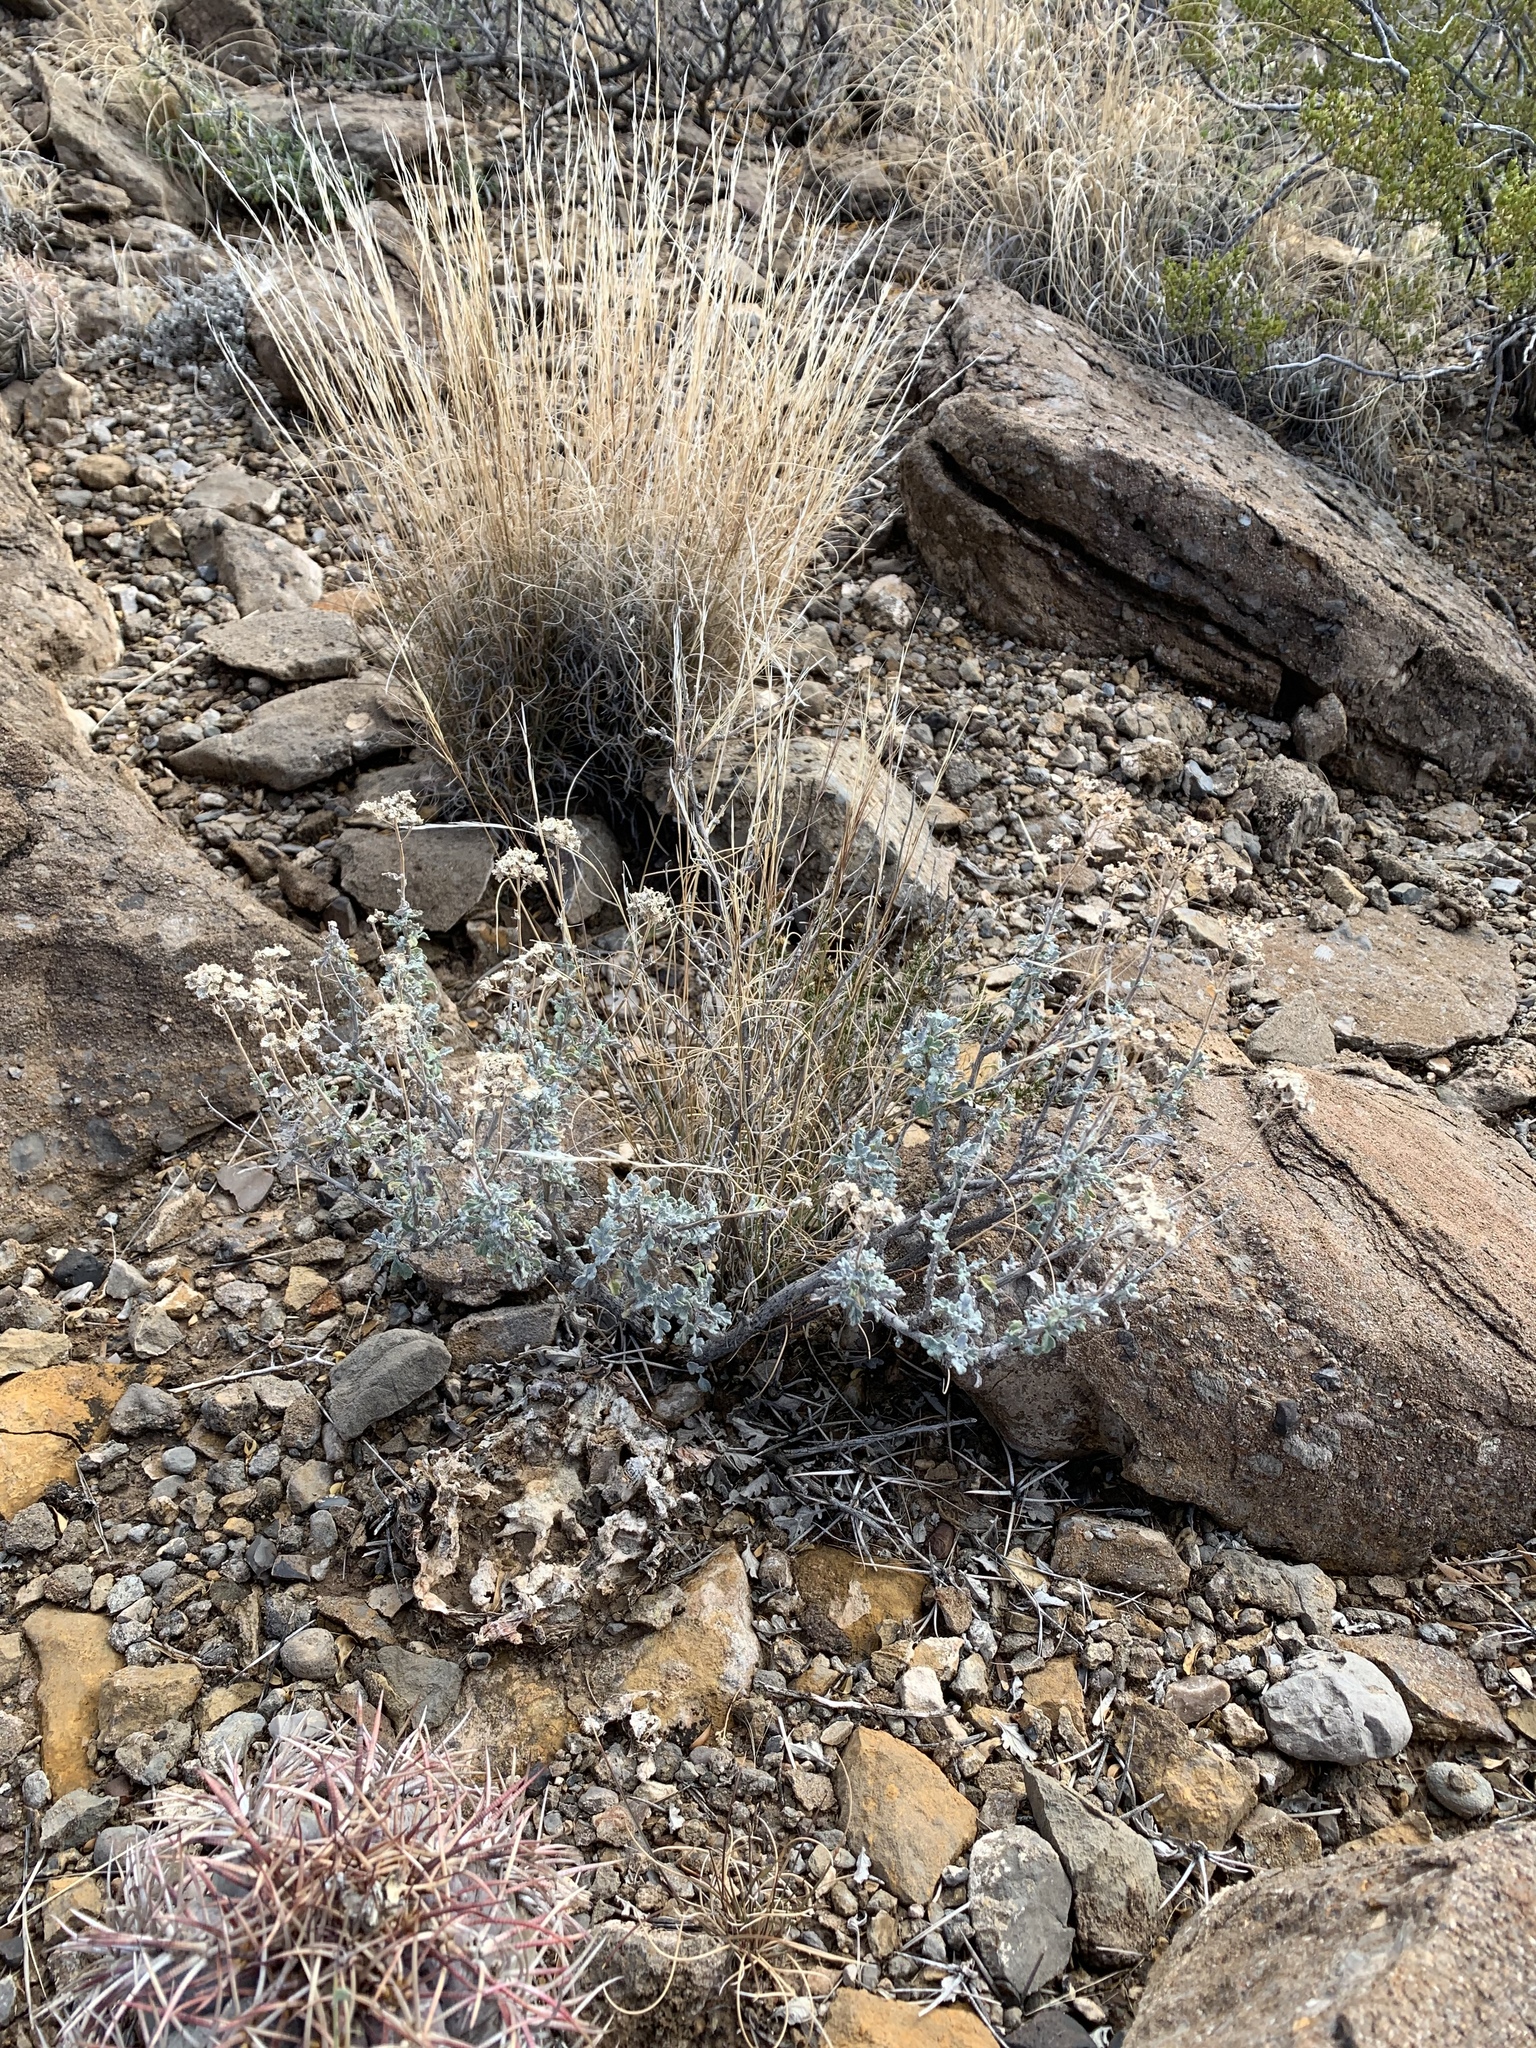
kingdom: Plantae
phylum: Tracheophyta
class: Magnoliopsida
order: Asterales
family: Asteraceae
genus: Parthenium
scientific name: Parthenium incanum
